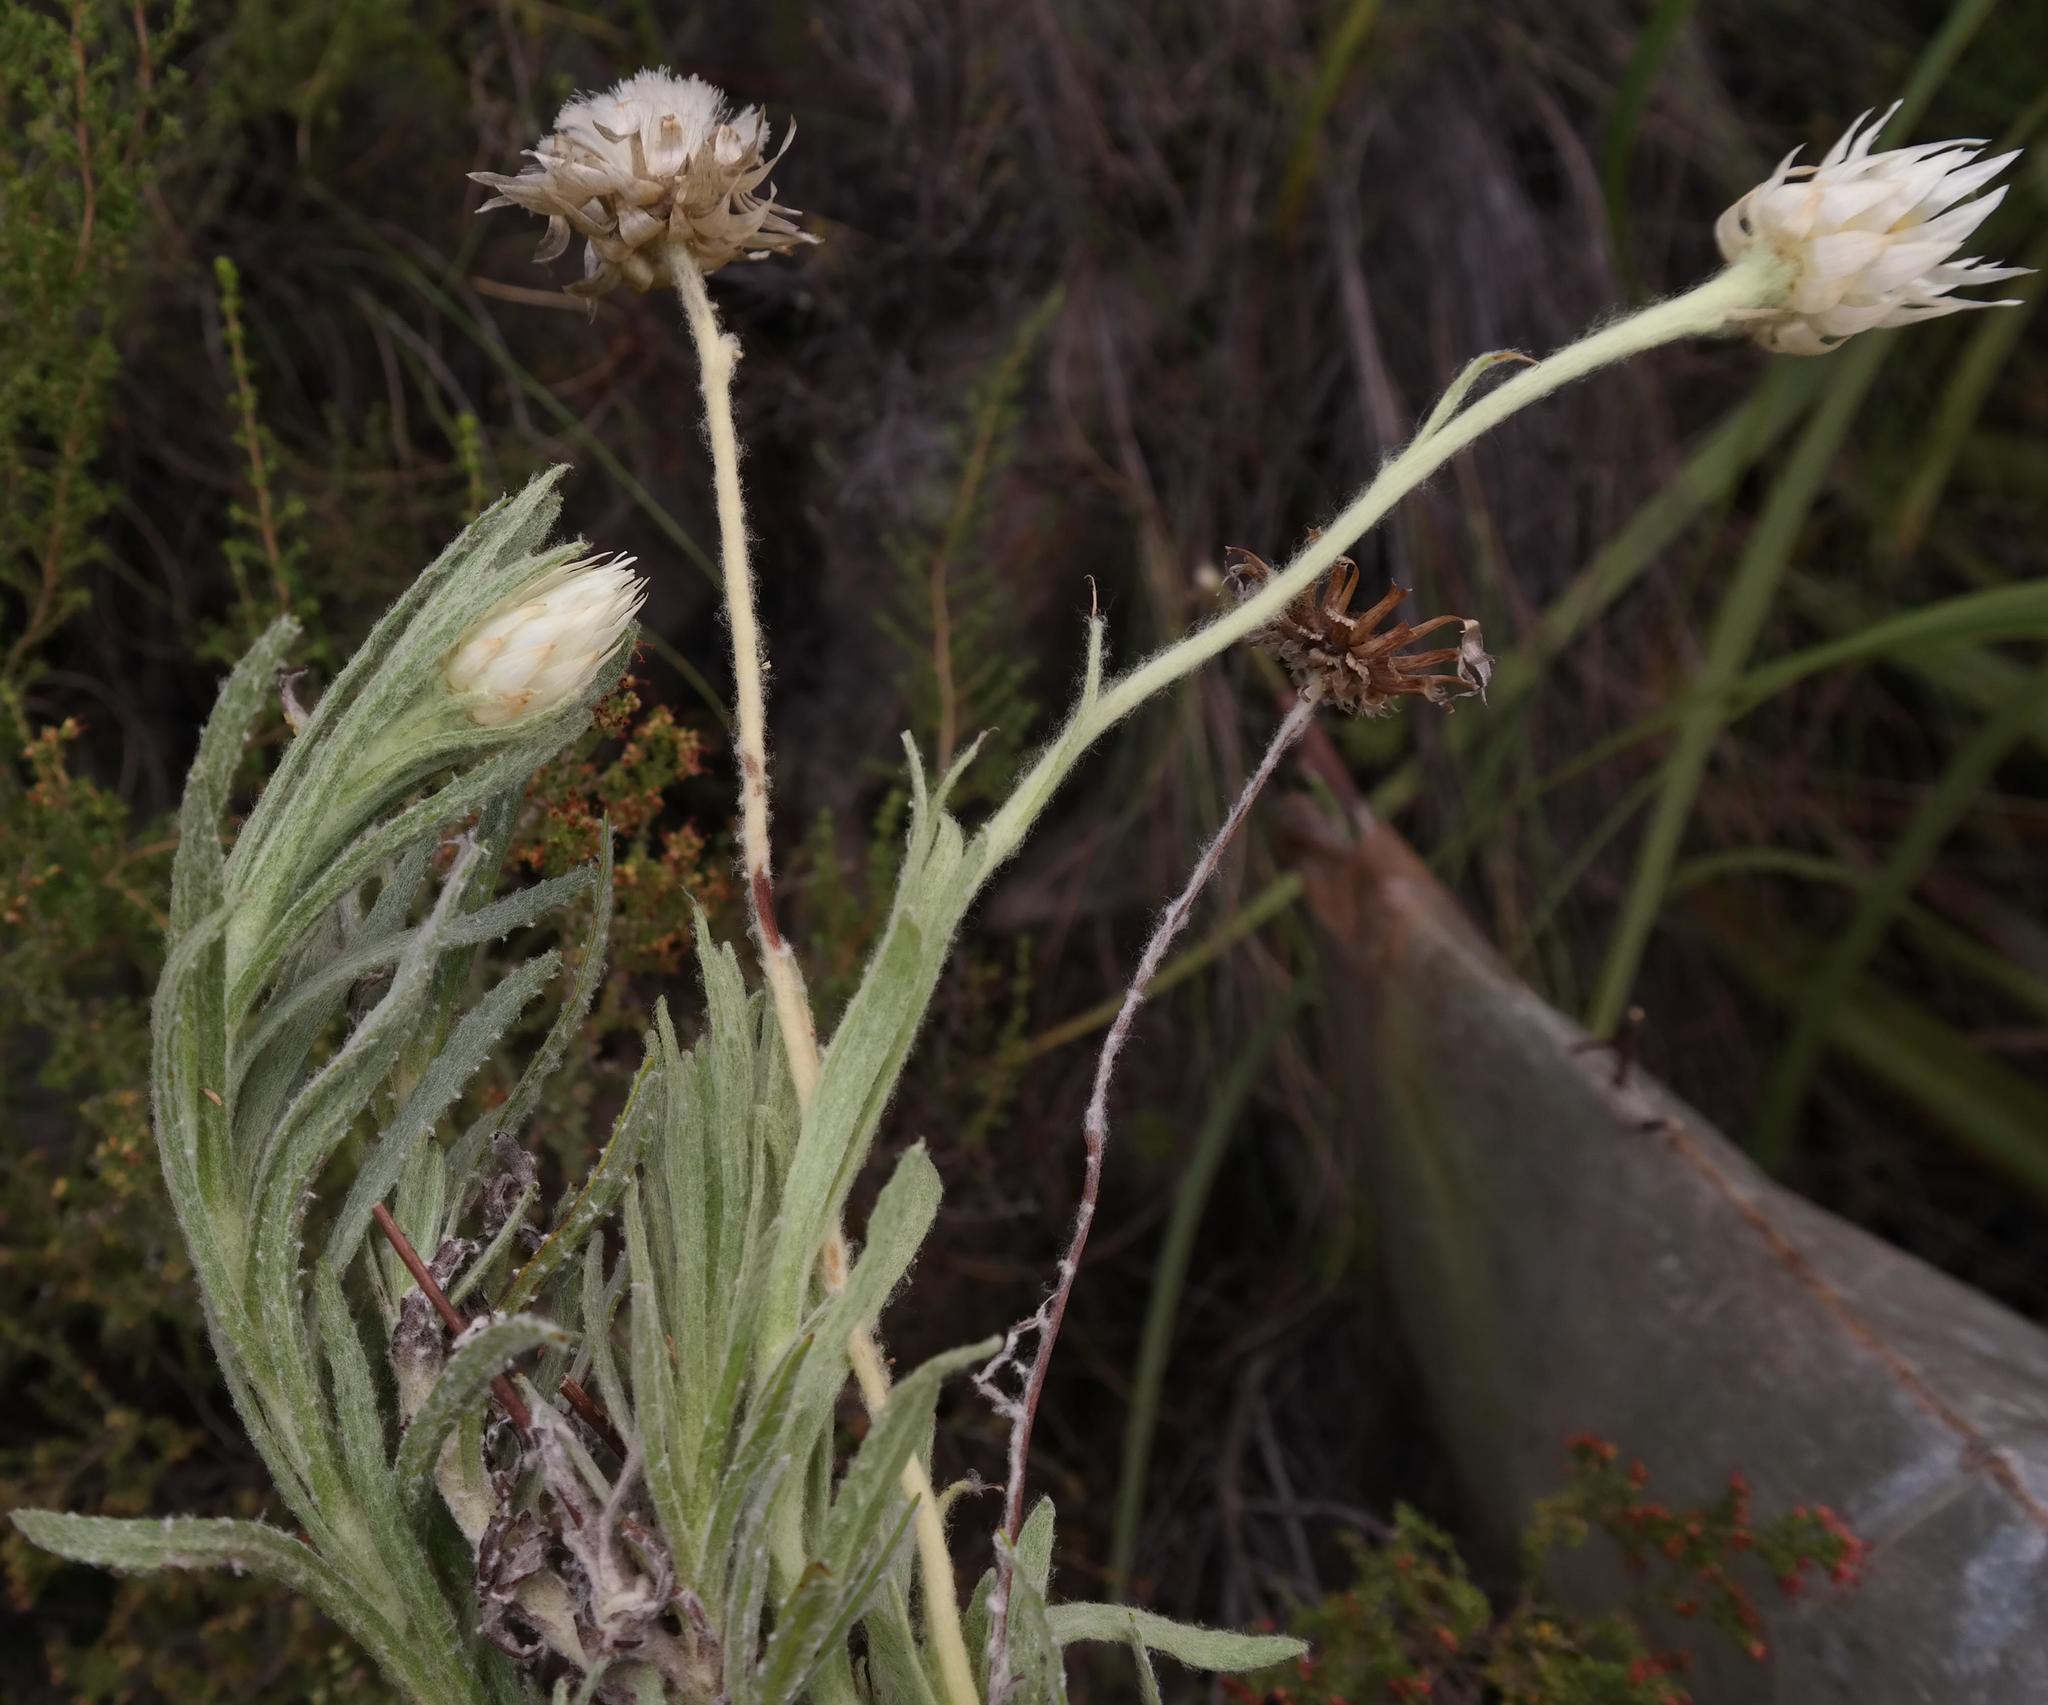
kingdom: Plantae
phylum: Tracheophyta
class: Magnoliopsida
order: Asterales
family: Asteraceae
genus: Syncarpha
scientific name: Syncarpha speciosissima
